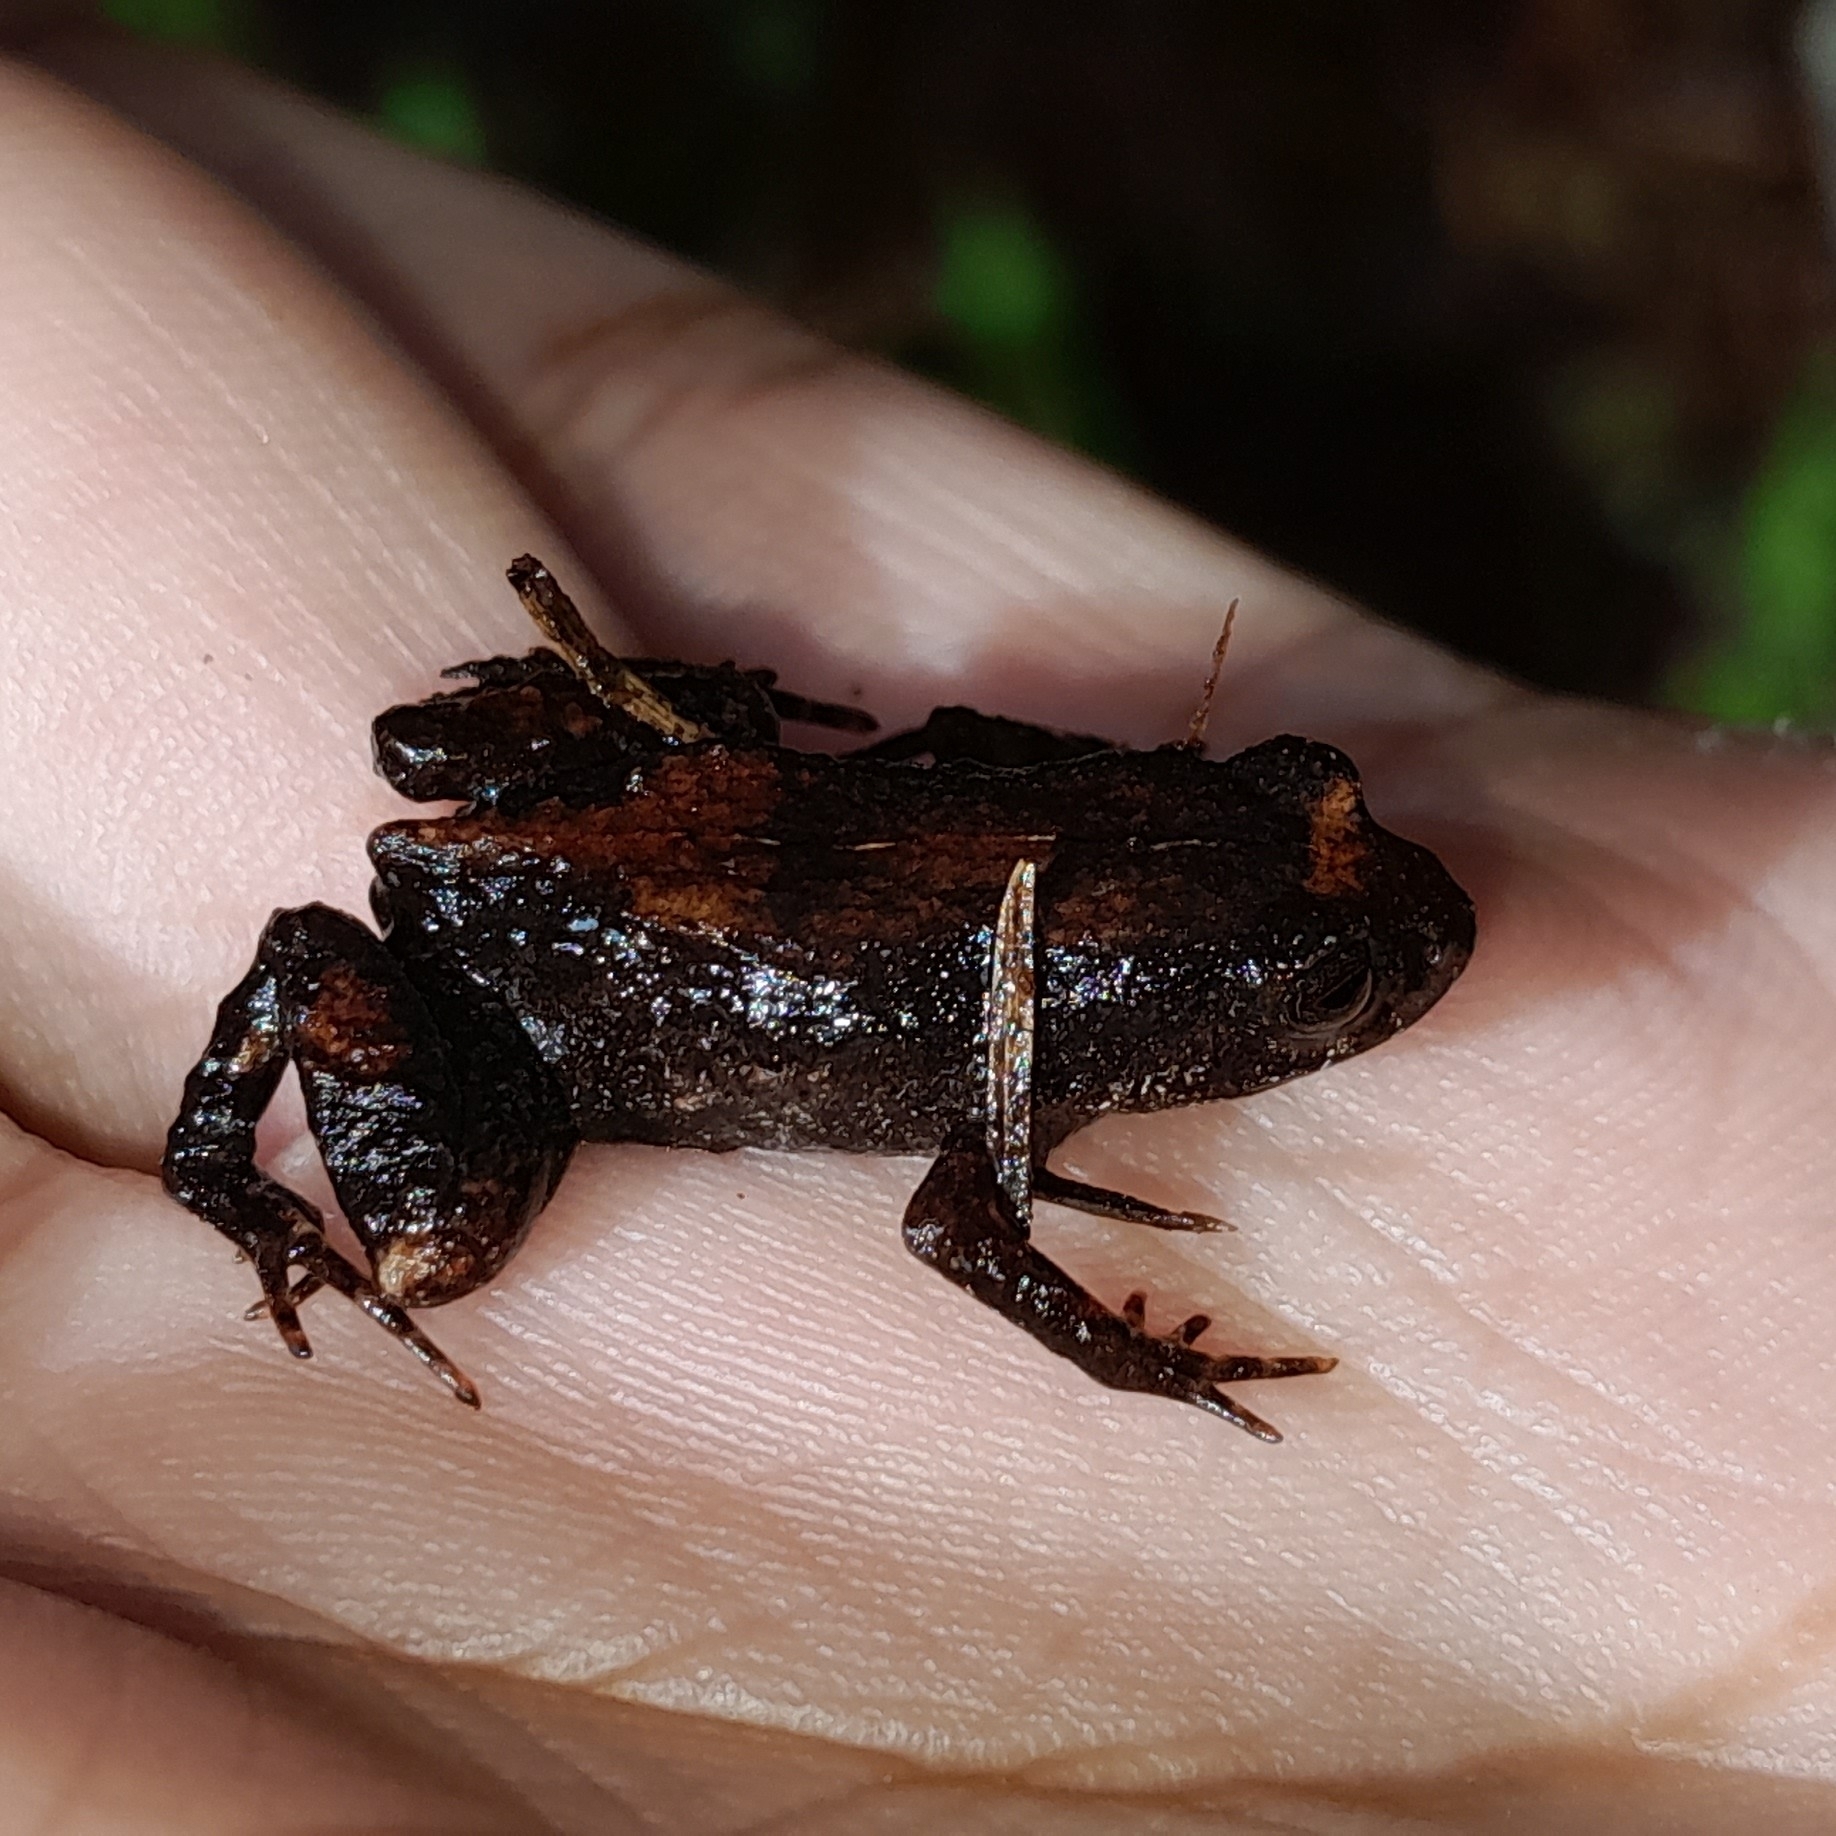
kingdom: Animalia
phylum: Chordata
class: Amphibia
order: Anura
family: Craugastoridae
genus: Geobatrachus
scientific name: Geobatrachus walkeri
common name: Walker's sierra frog
